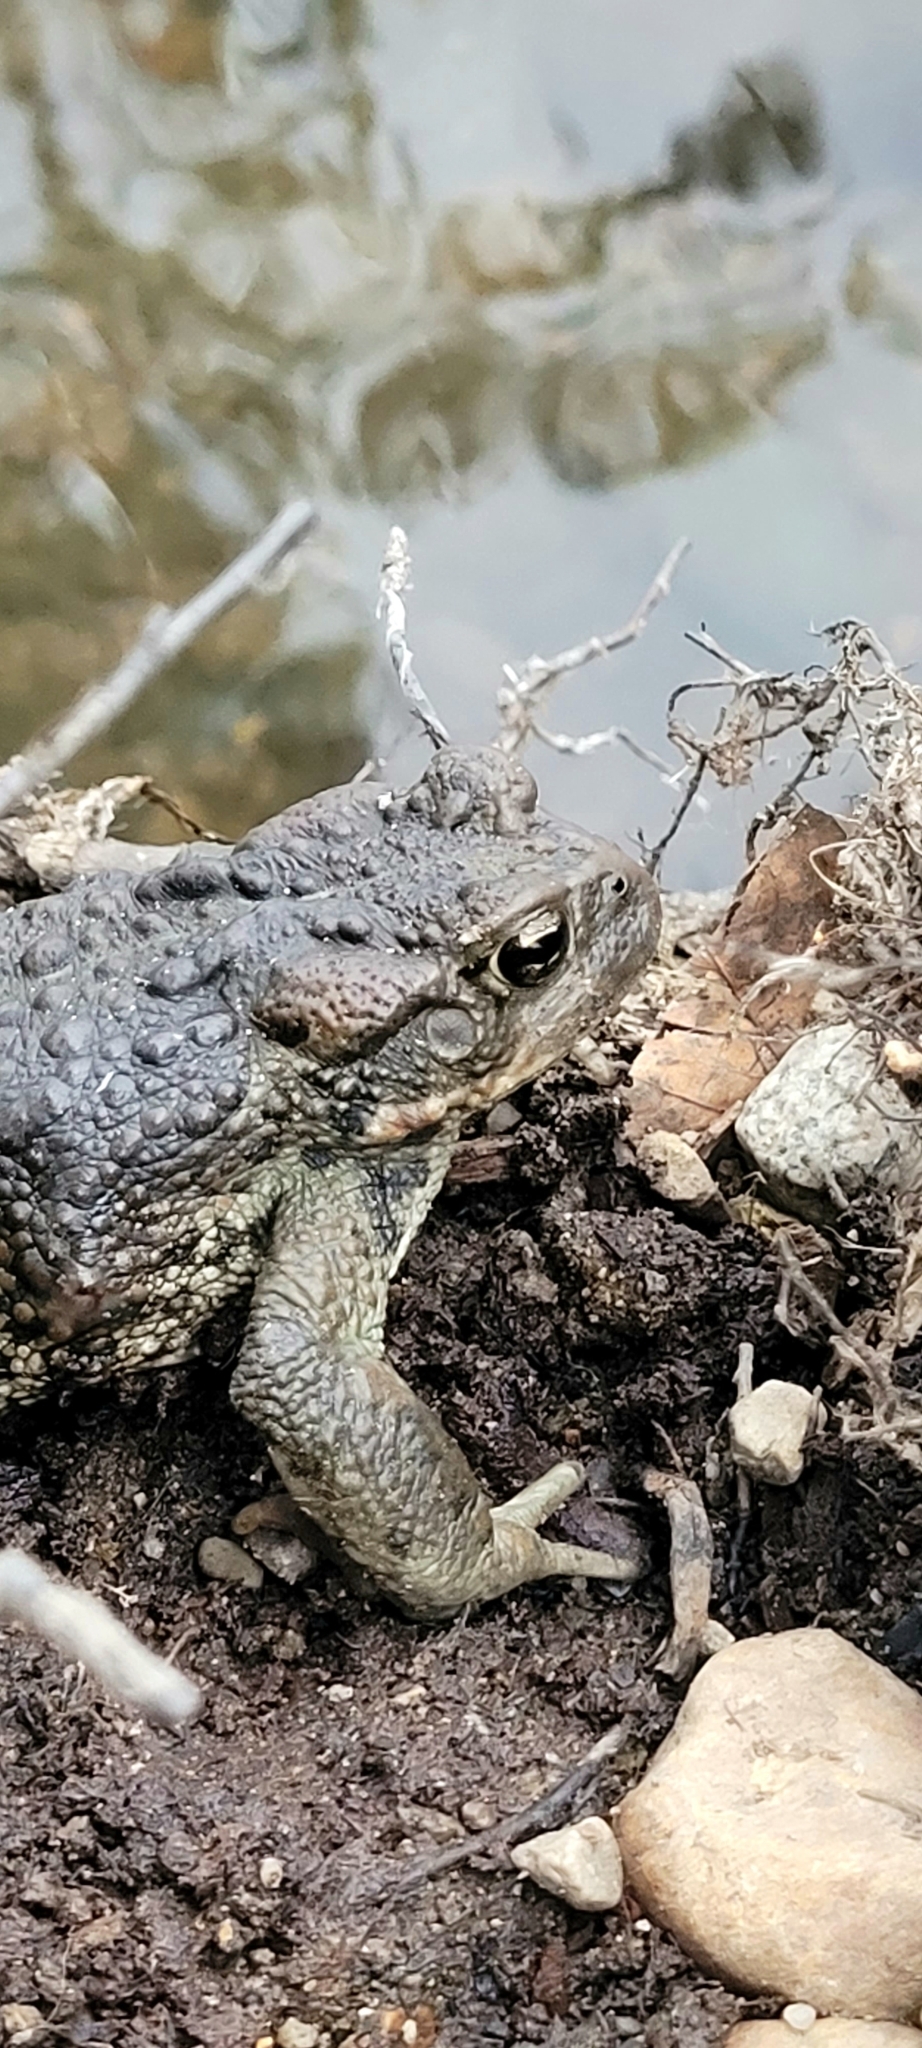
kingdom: Animalia
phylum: Chordata
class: Amphibia
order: Anura
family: Bufonidae
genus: Anaxyrus
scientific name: Anaxyrus boreas
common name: Western toad
